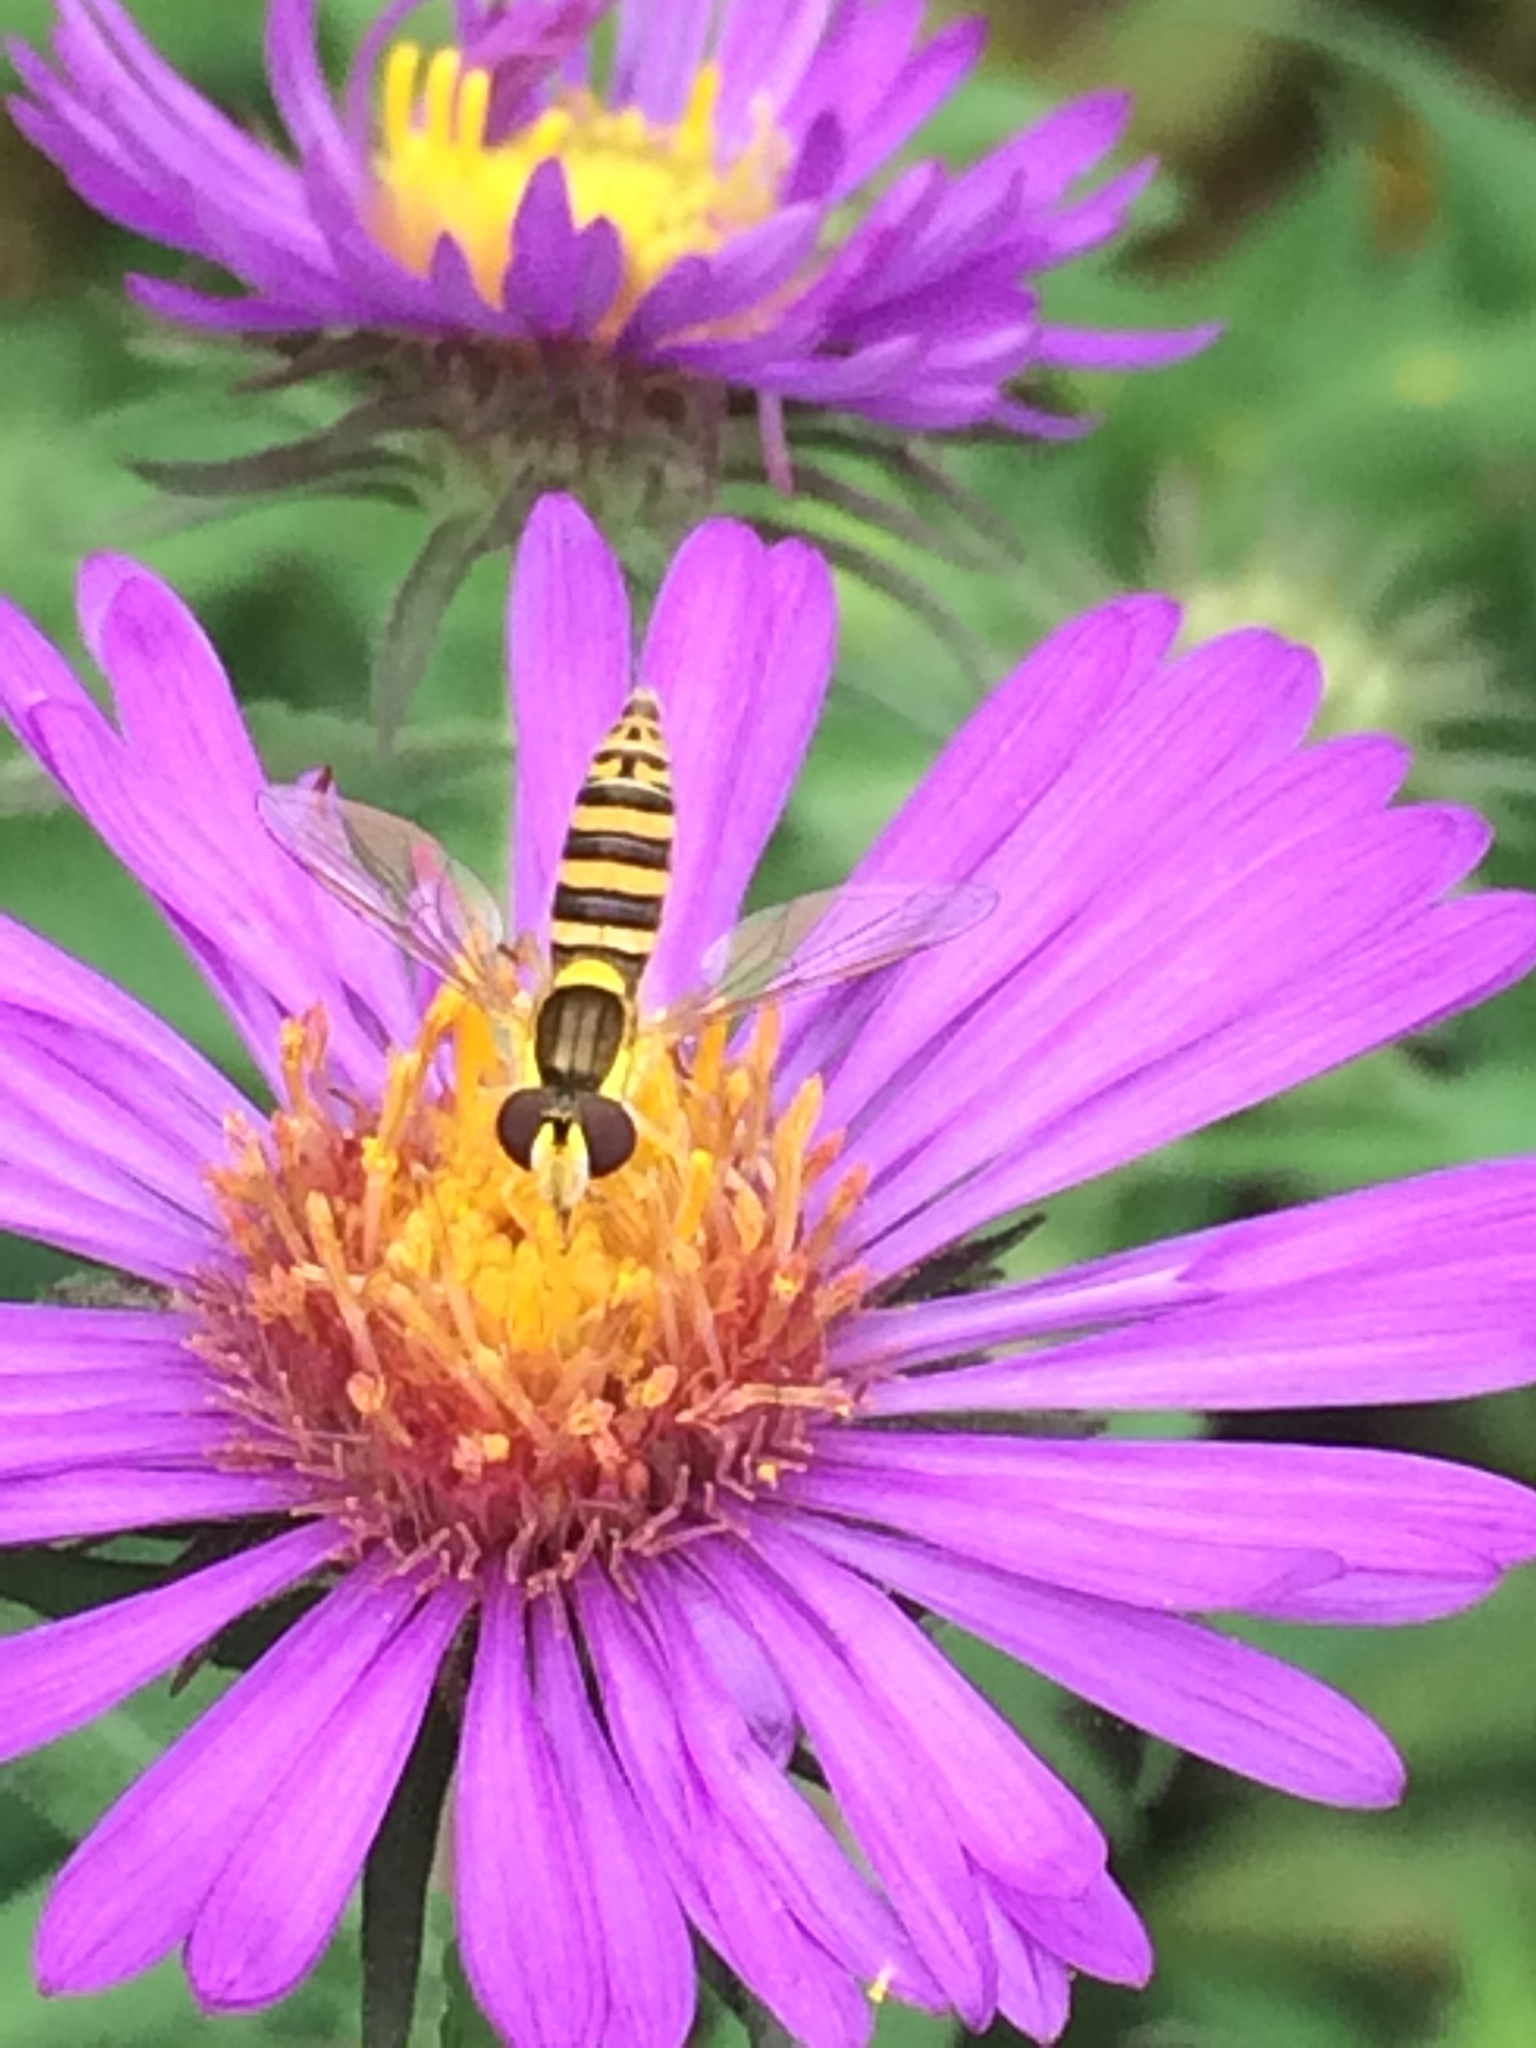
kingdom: Animalia
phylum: Arthropoda
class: Insecta
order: Diptera
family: Syrphidae
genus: Sphaerophoria
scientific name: Sphaerophoria
